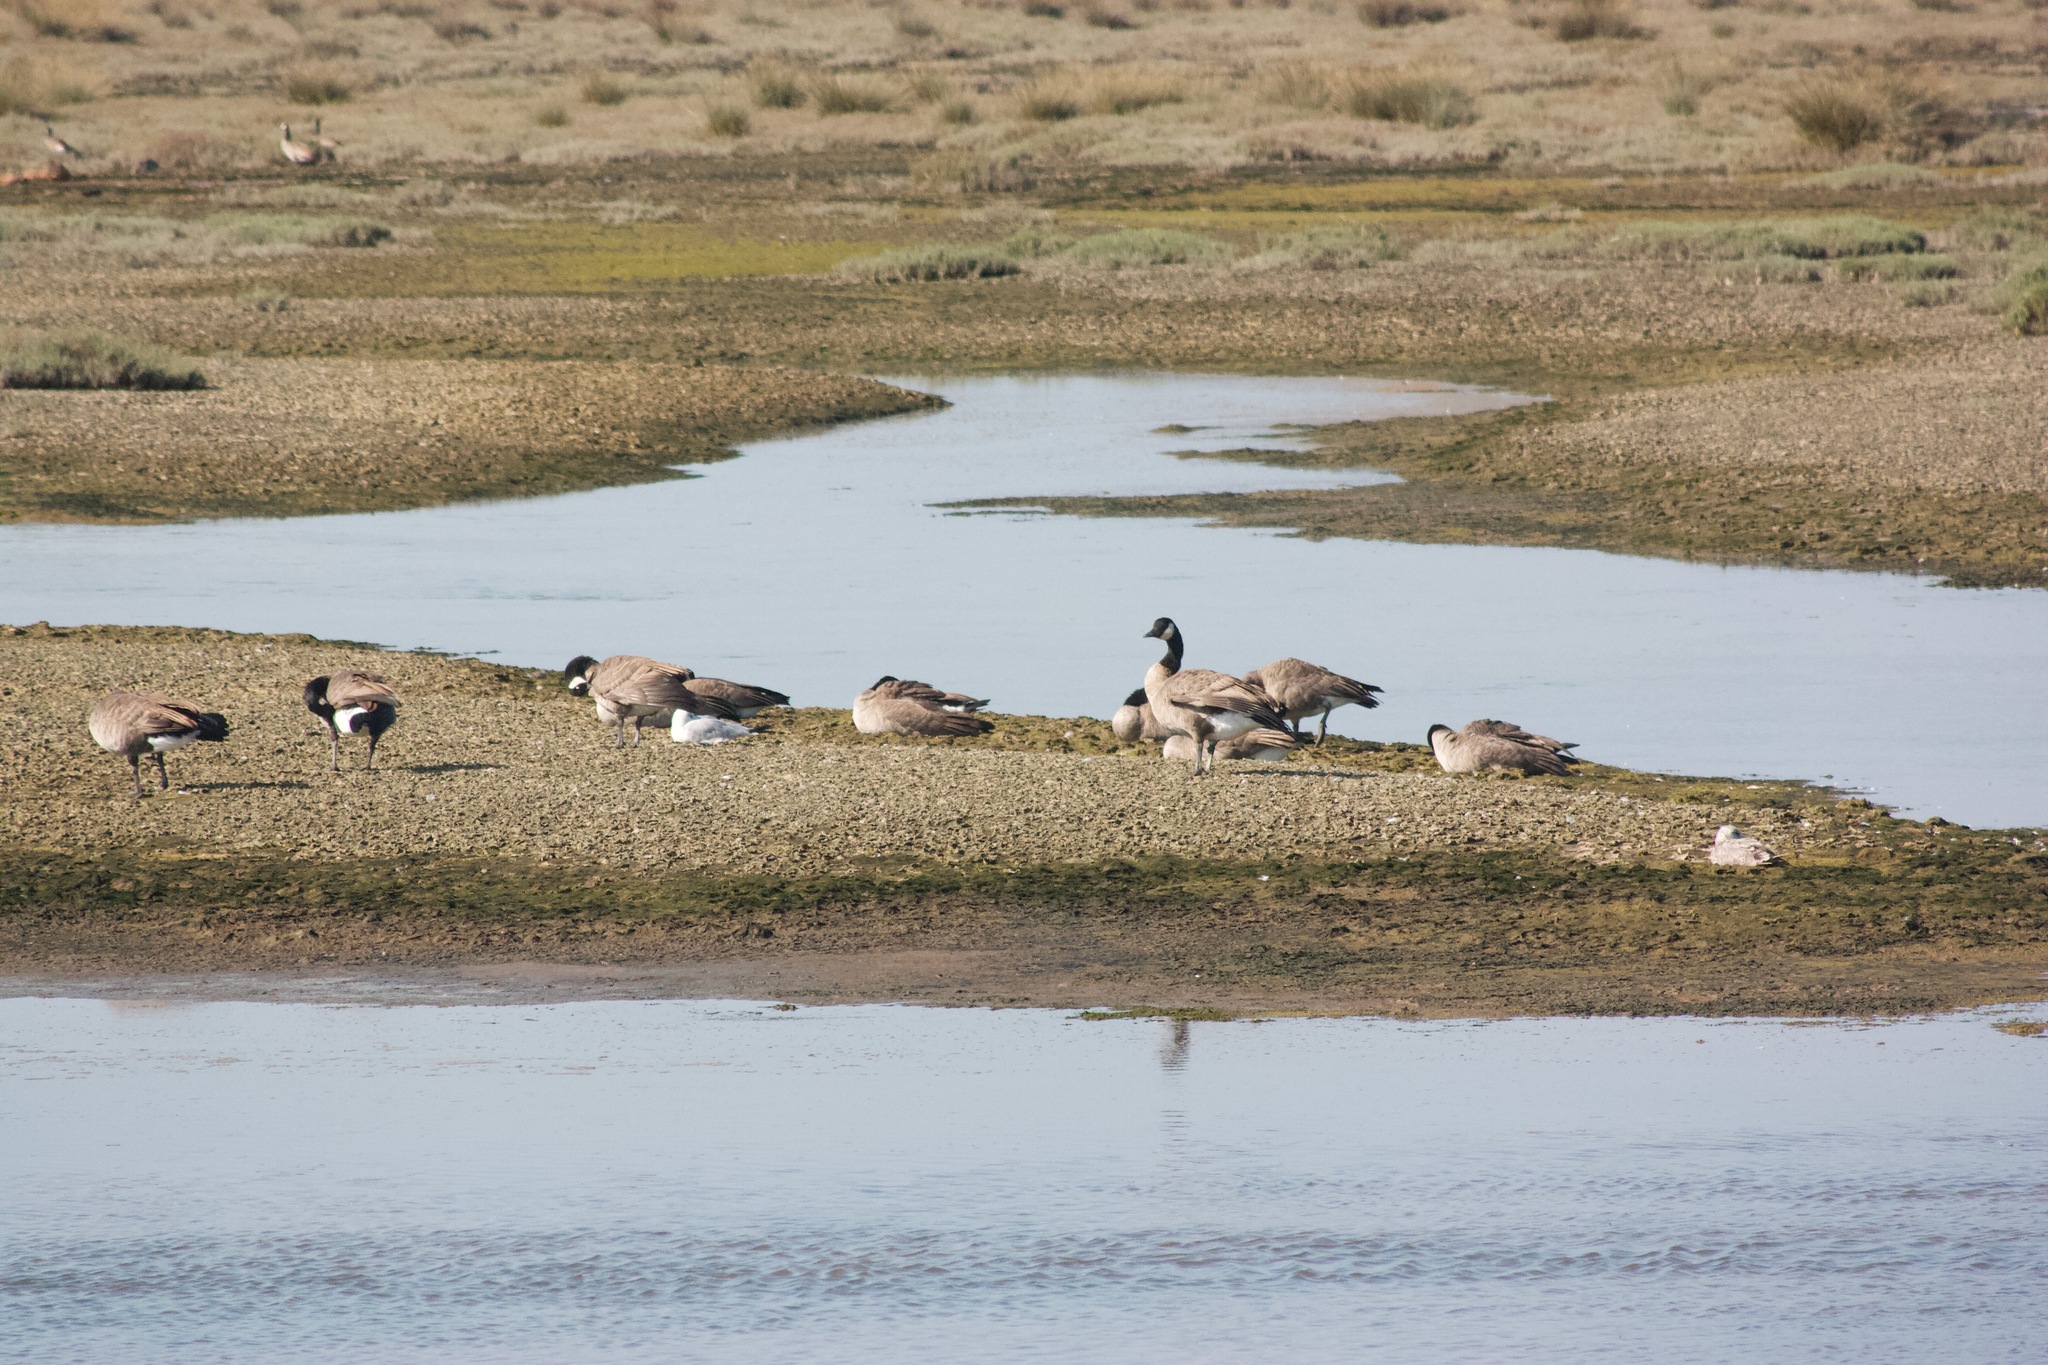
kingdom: Animalia
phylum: Chordata
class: Aves
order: Anseriformes
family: Anatidae
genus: Branta
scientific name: Branta canadensis
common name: Canada goose
